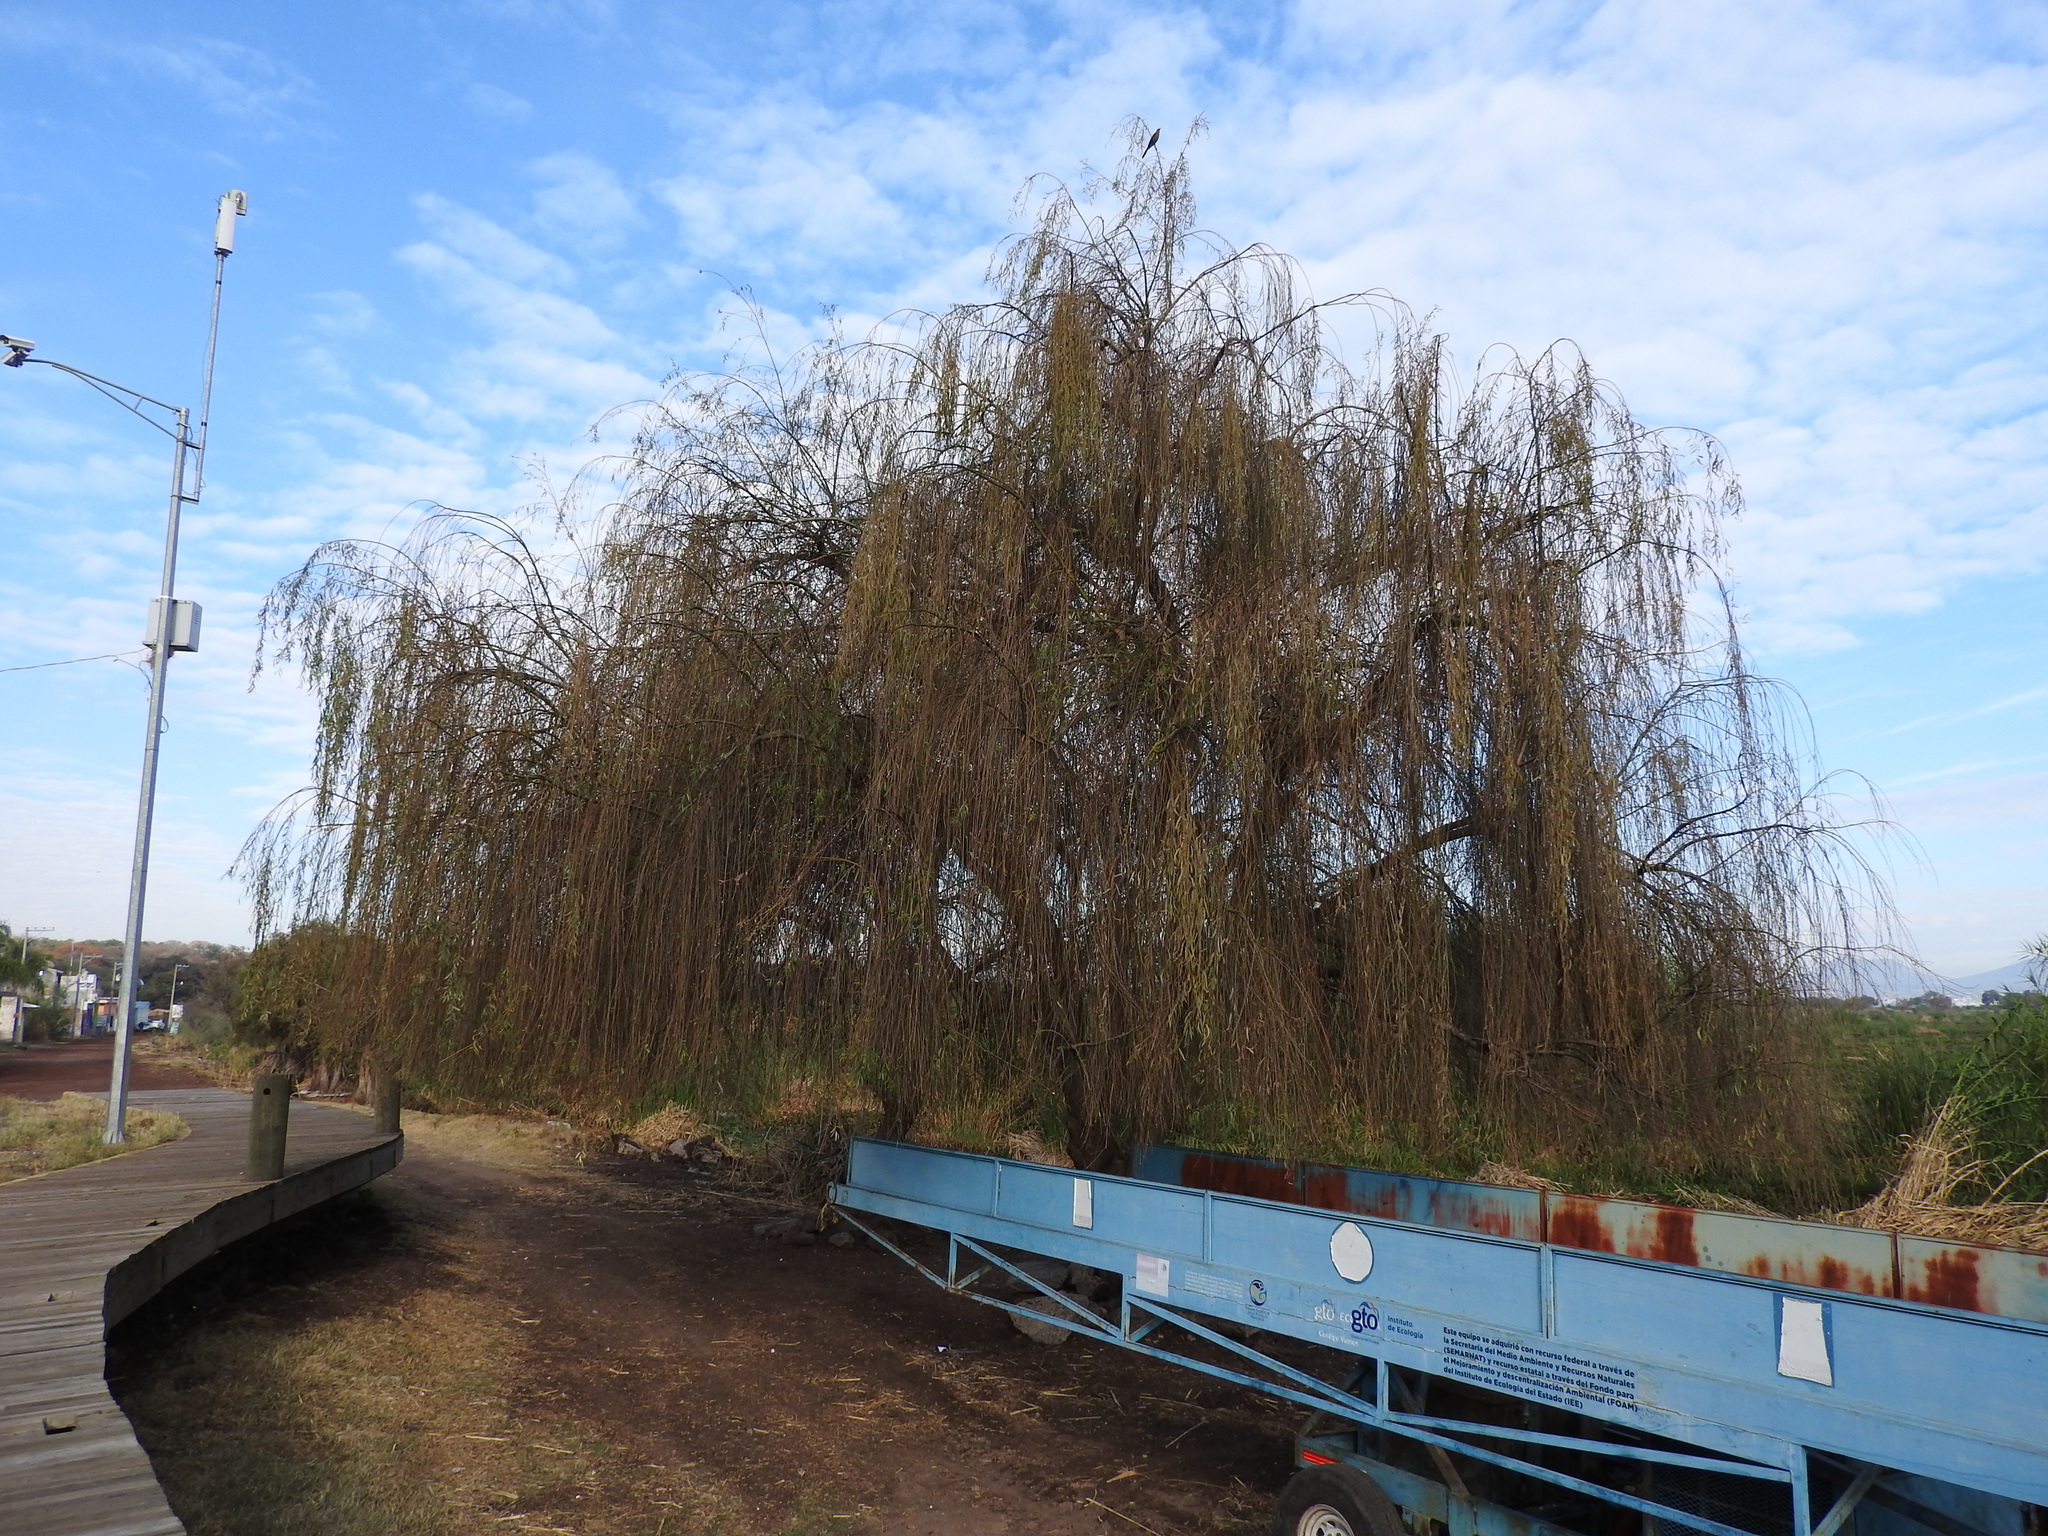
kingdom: Plantae
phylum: Tracheophyta
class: Magnoliopsida
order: Malpighiales
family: Salicaceae
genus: Salix
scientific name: Salix babylonica
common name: Weeping willow
